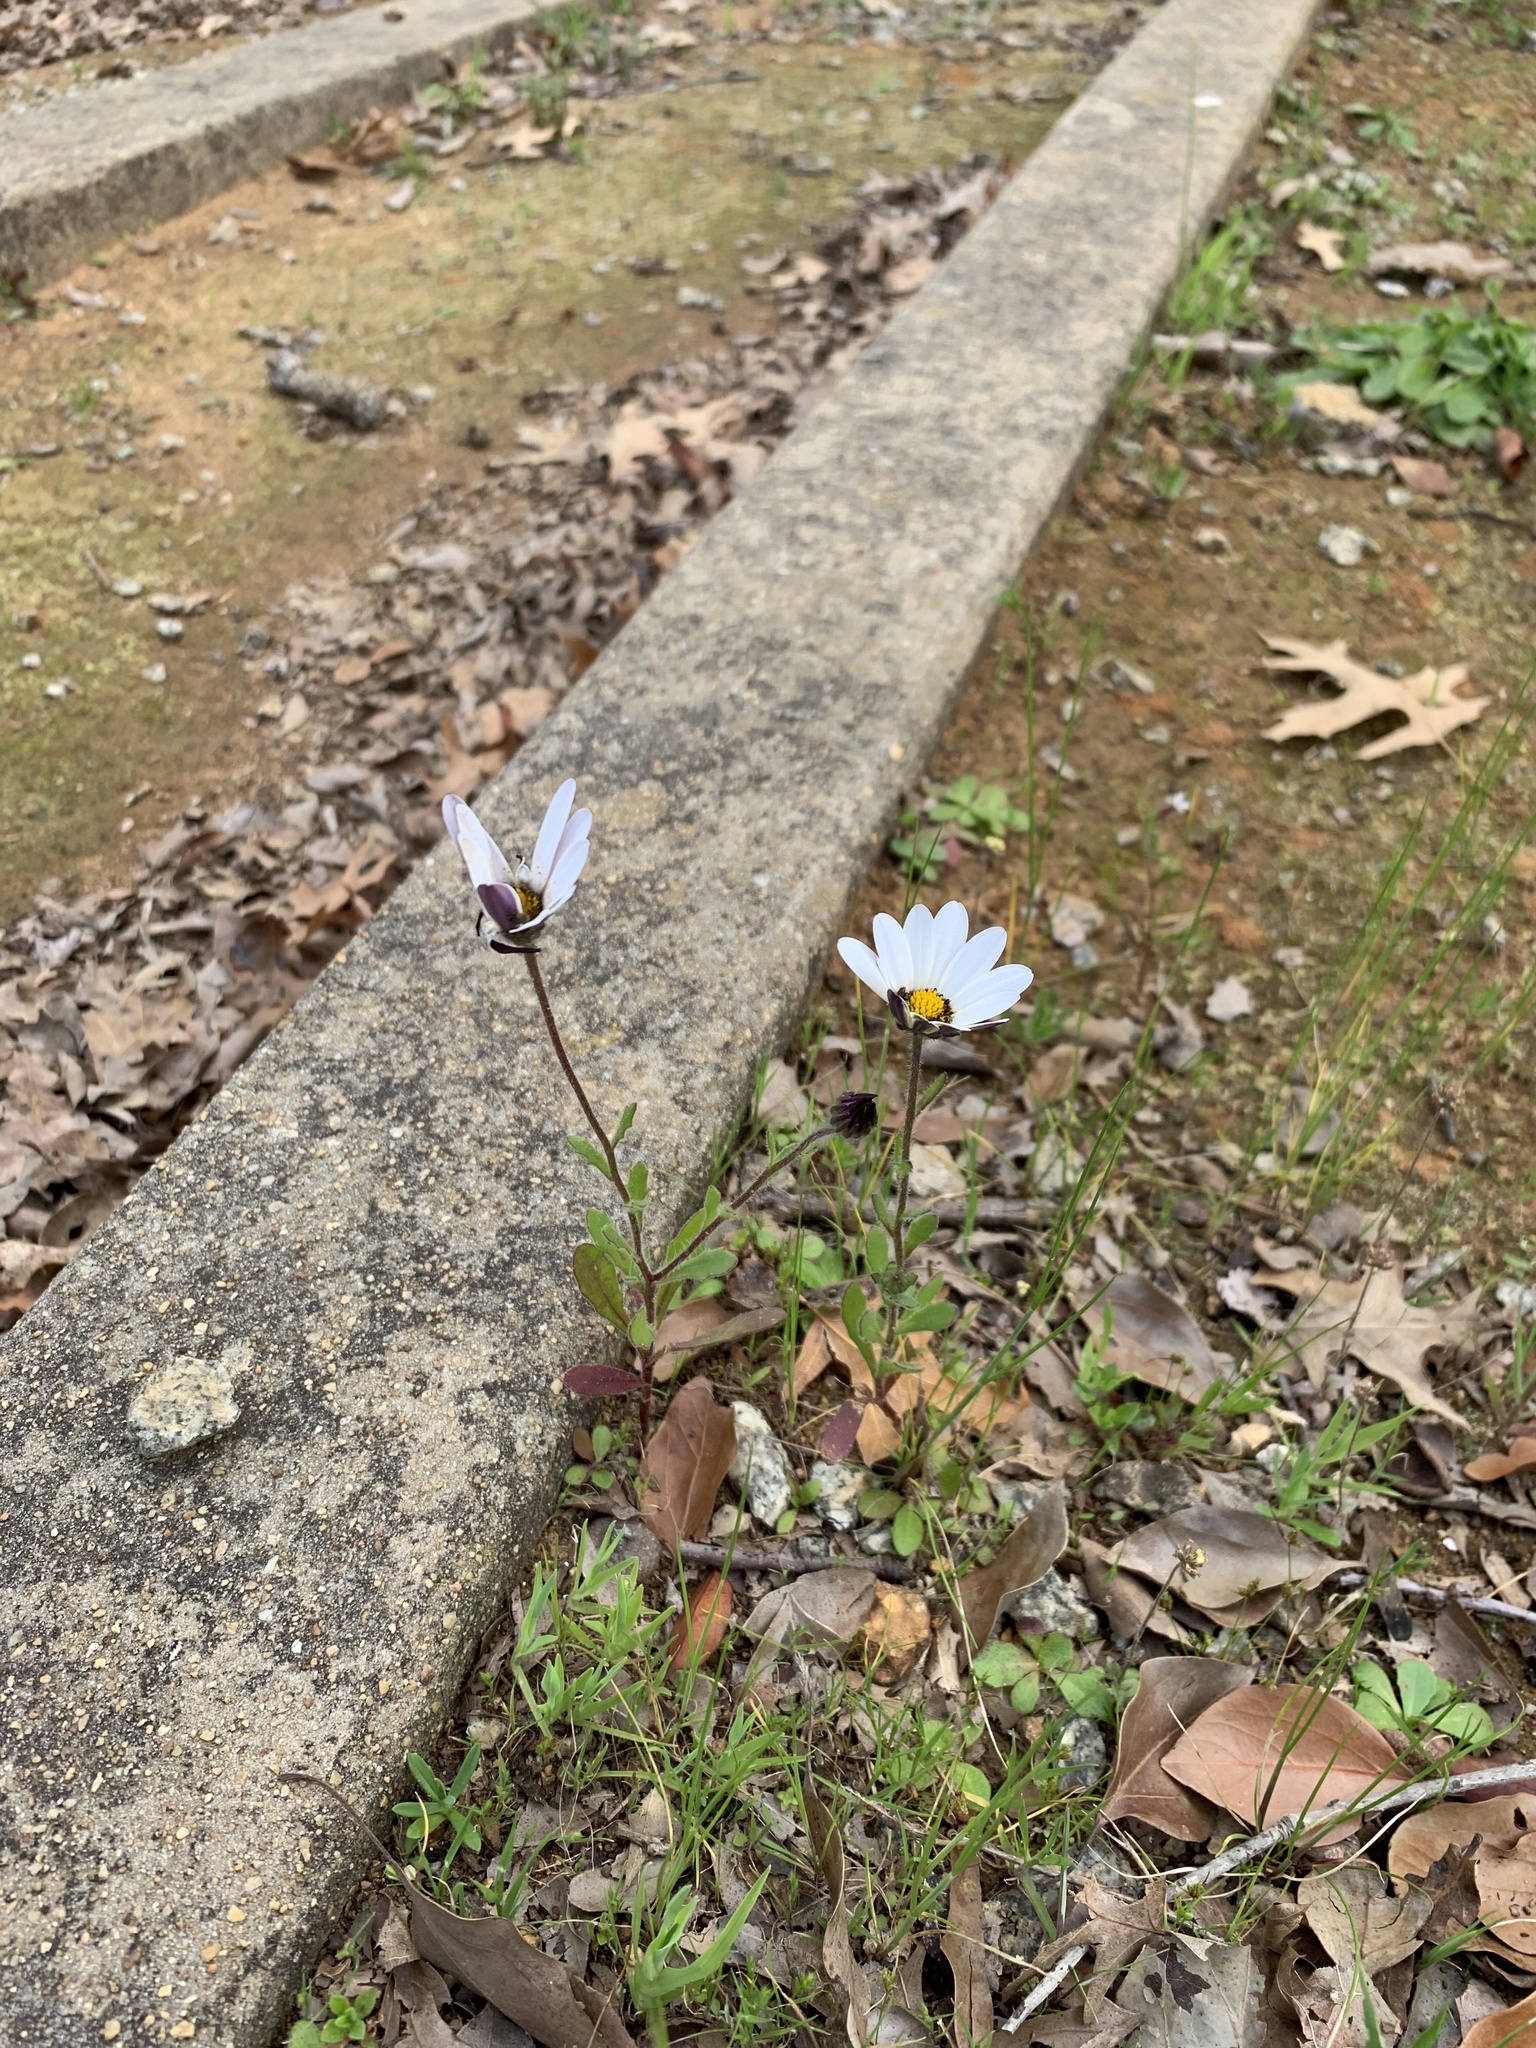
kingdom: Plantae
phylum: Tracheophyta
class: Magnoliopsida
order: Asterales
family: Asteraceae
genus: Dimorphotheca
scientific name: Dimorphotheca pluvialis
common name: Weather prophet
